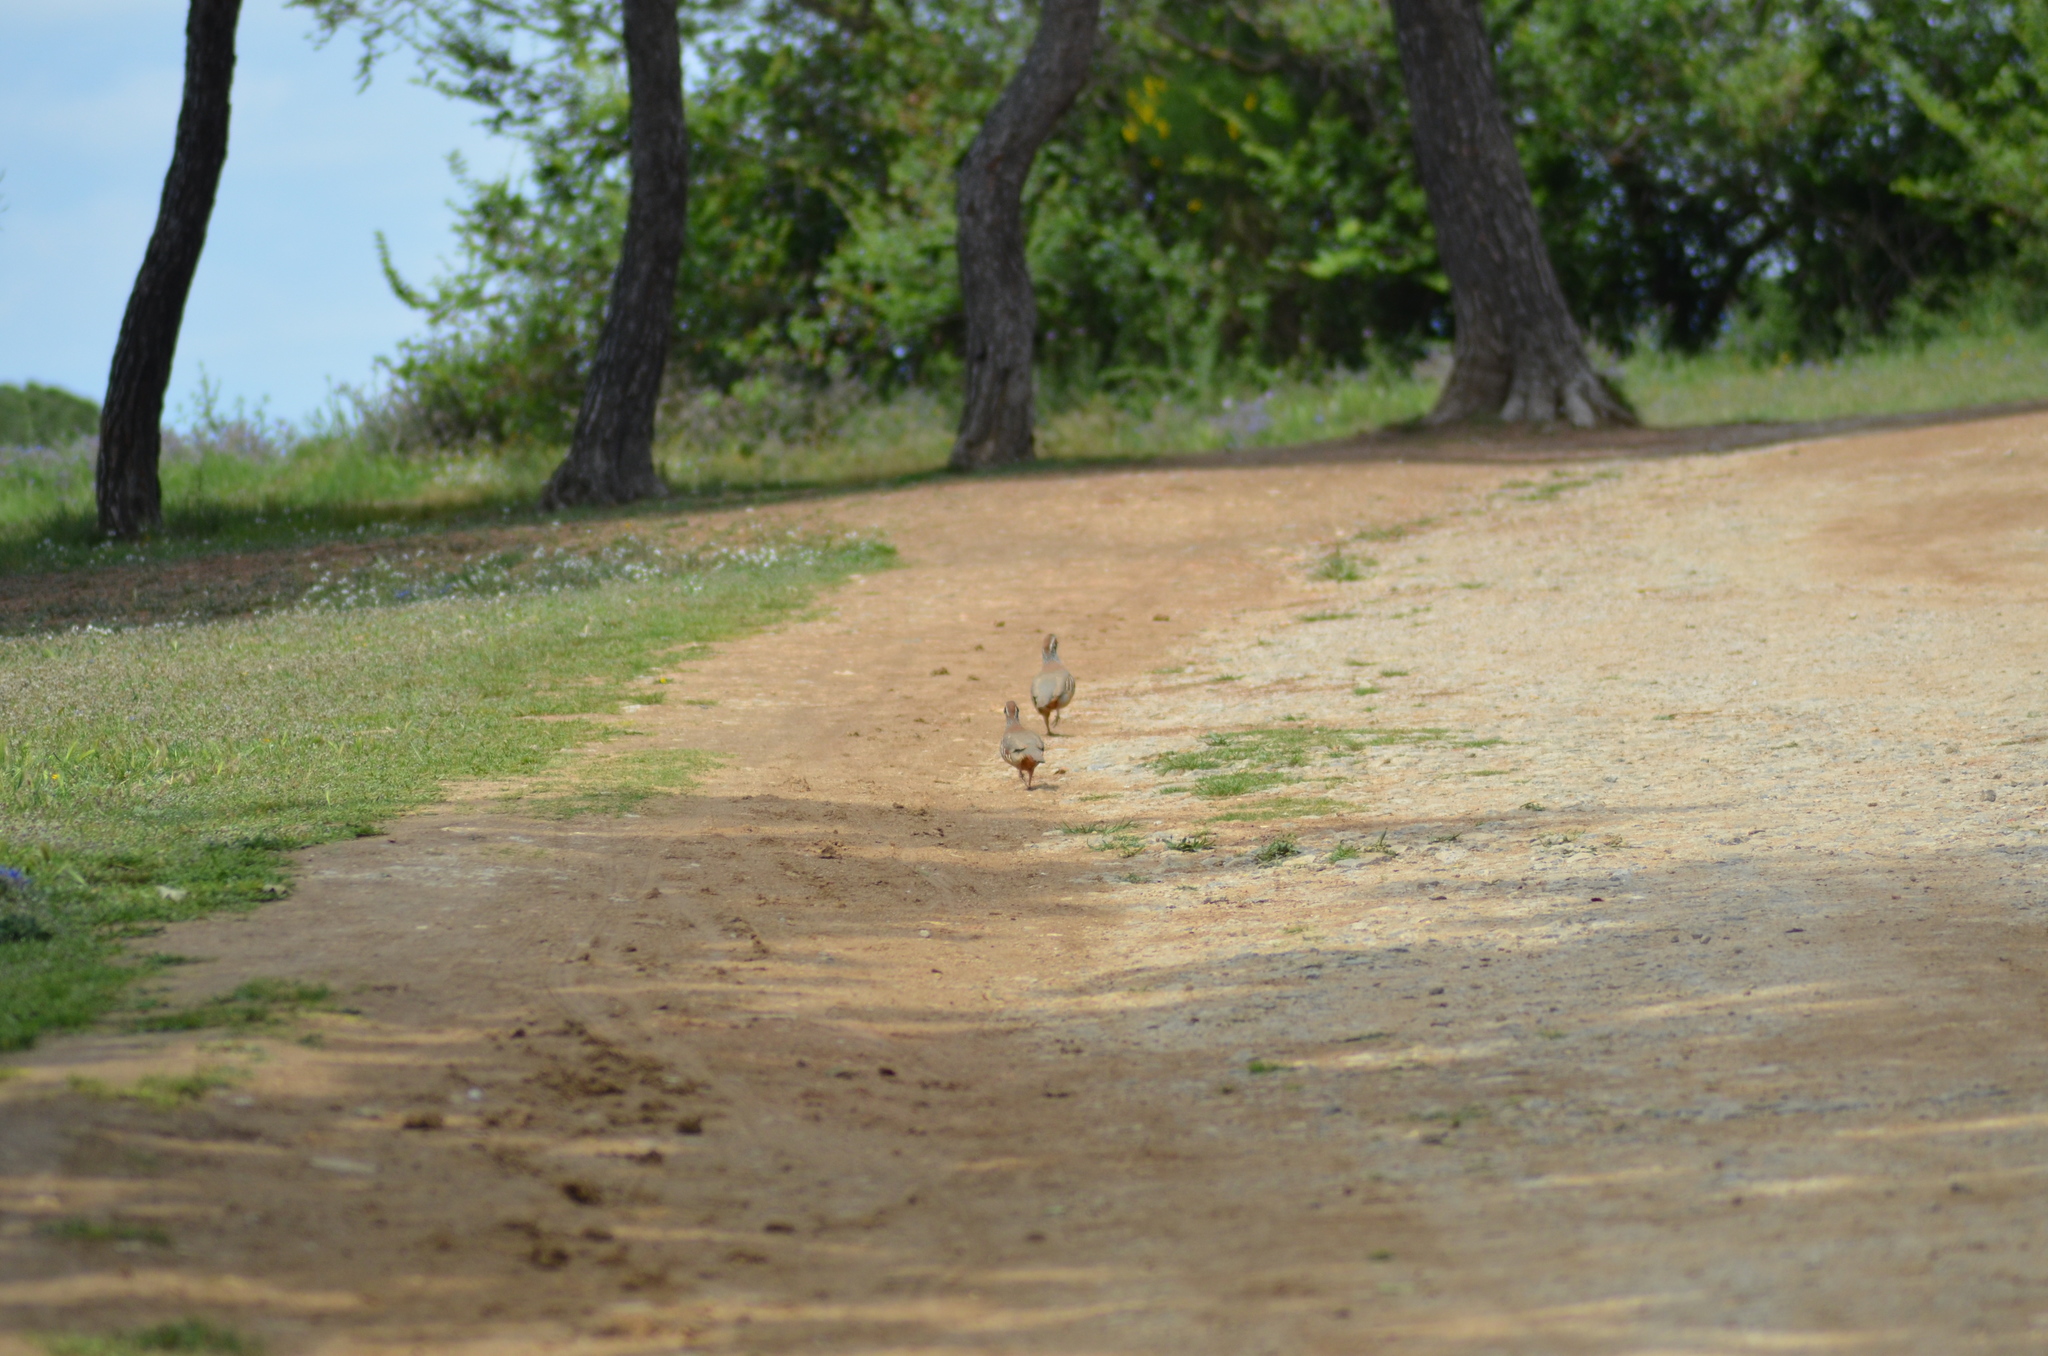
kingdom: Animalia
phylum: Chordata
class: Aves
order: Galliformes
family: Phasianidae
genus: Alectoris
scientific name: Alectoris rufa
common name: Red-legged partridge
